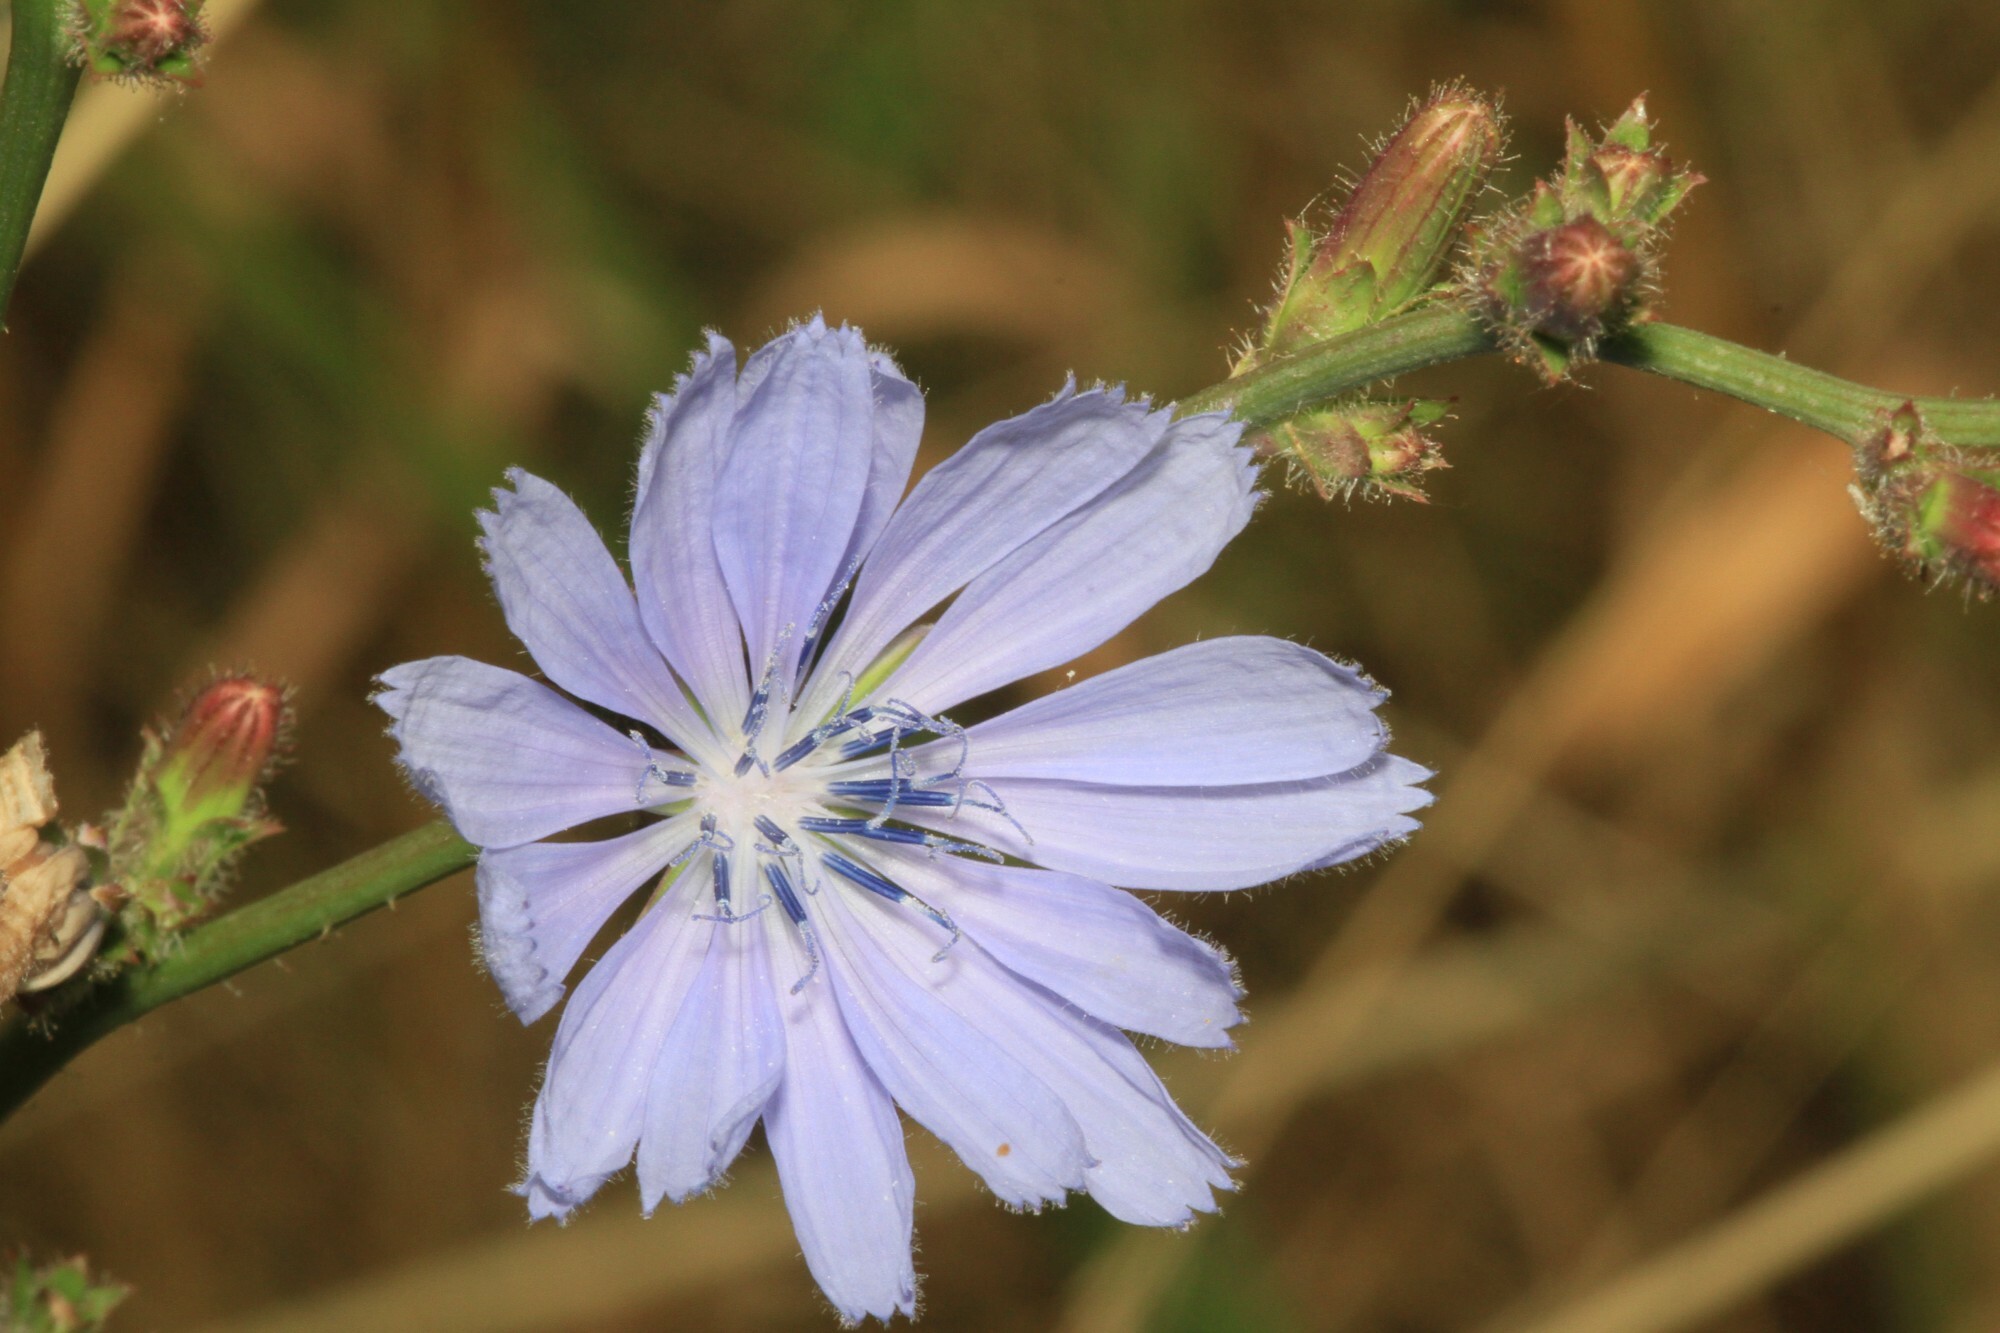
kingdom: Plantae
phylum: Tracheophyta
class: Magnoliopsida
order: Asterales
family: Asteraceae
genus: Cichorium
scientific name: Cichorium intybus
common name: Chicory
